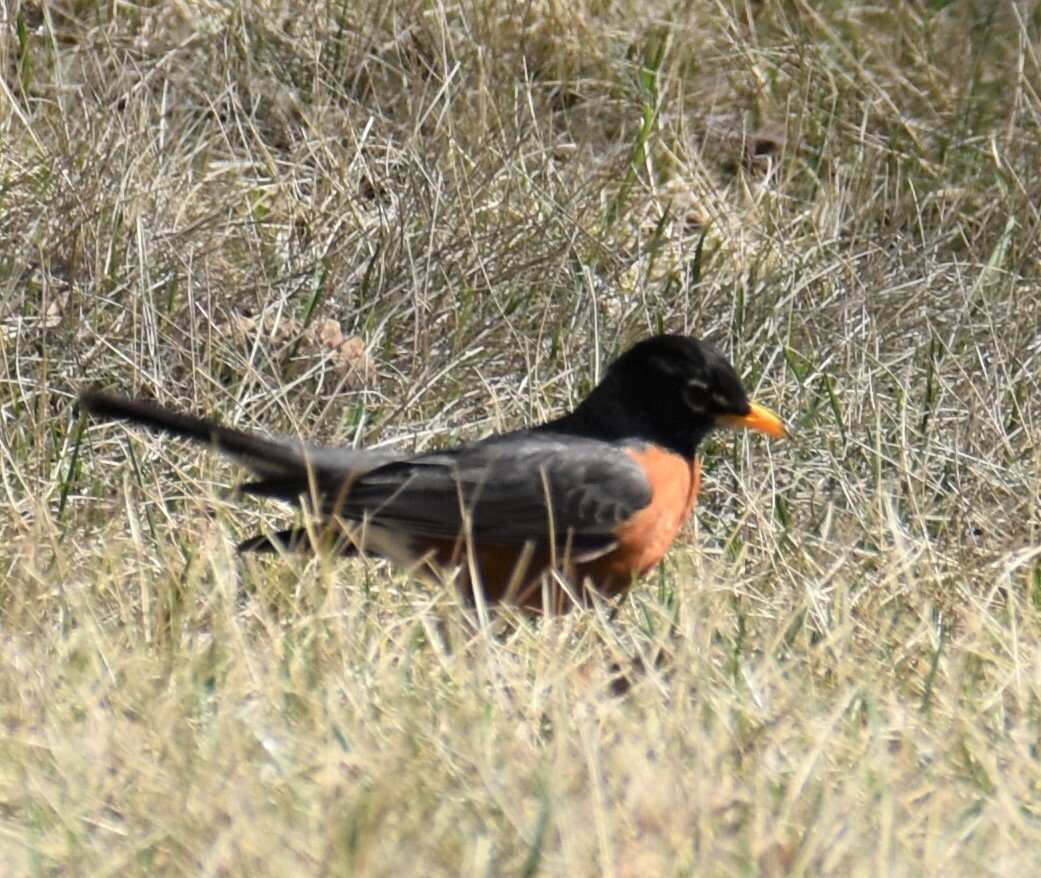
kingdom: Animalia
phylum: Chordata
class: Aves
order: Passeriformes
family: Turdidae
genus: Turdus
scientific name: Turdus migratorius
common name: American robin
